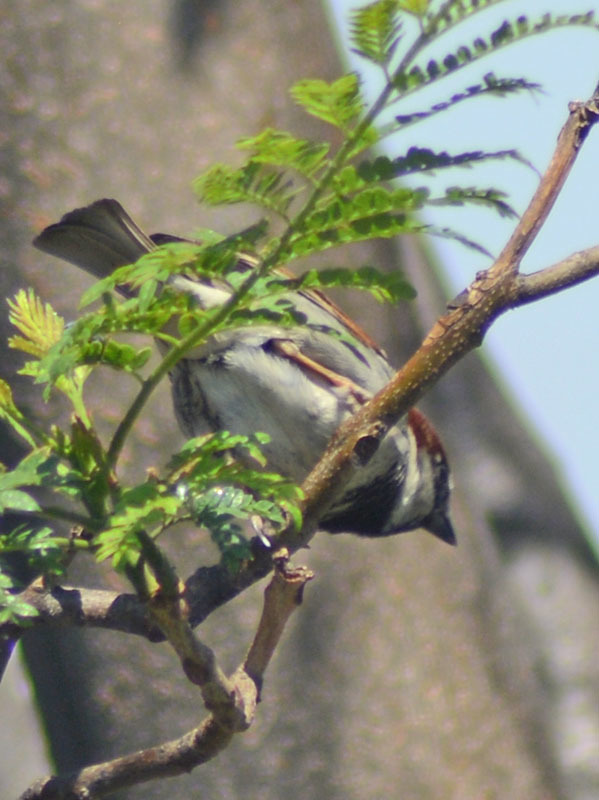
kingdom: Animalia
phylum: Chordata
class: Aves
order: Passeriformes
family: Passeridae
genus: Passer
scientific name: Passer domesticus
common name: House sparrow
